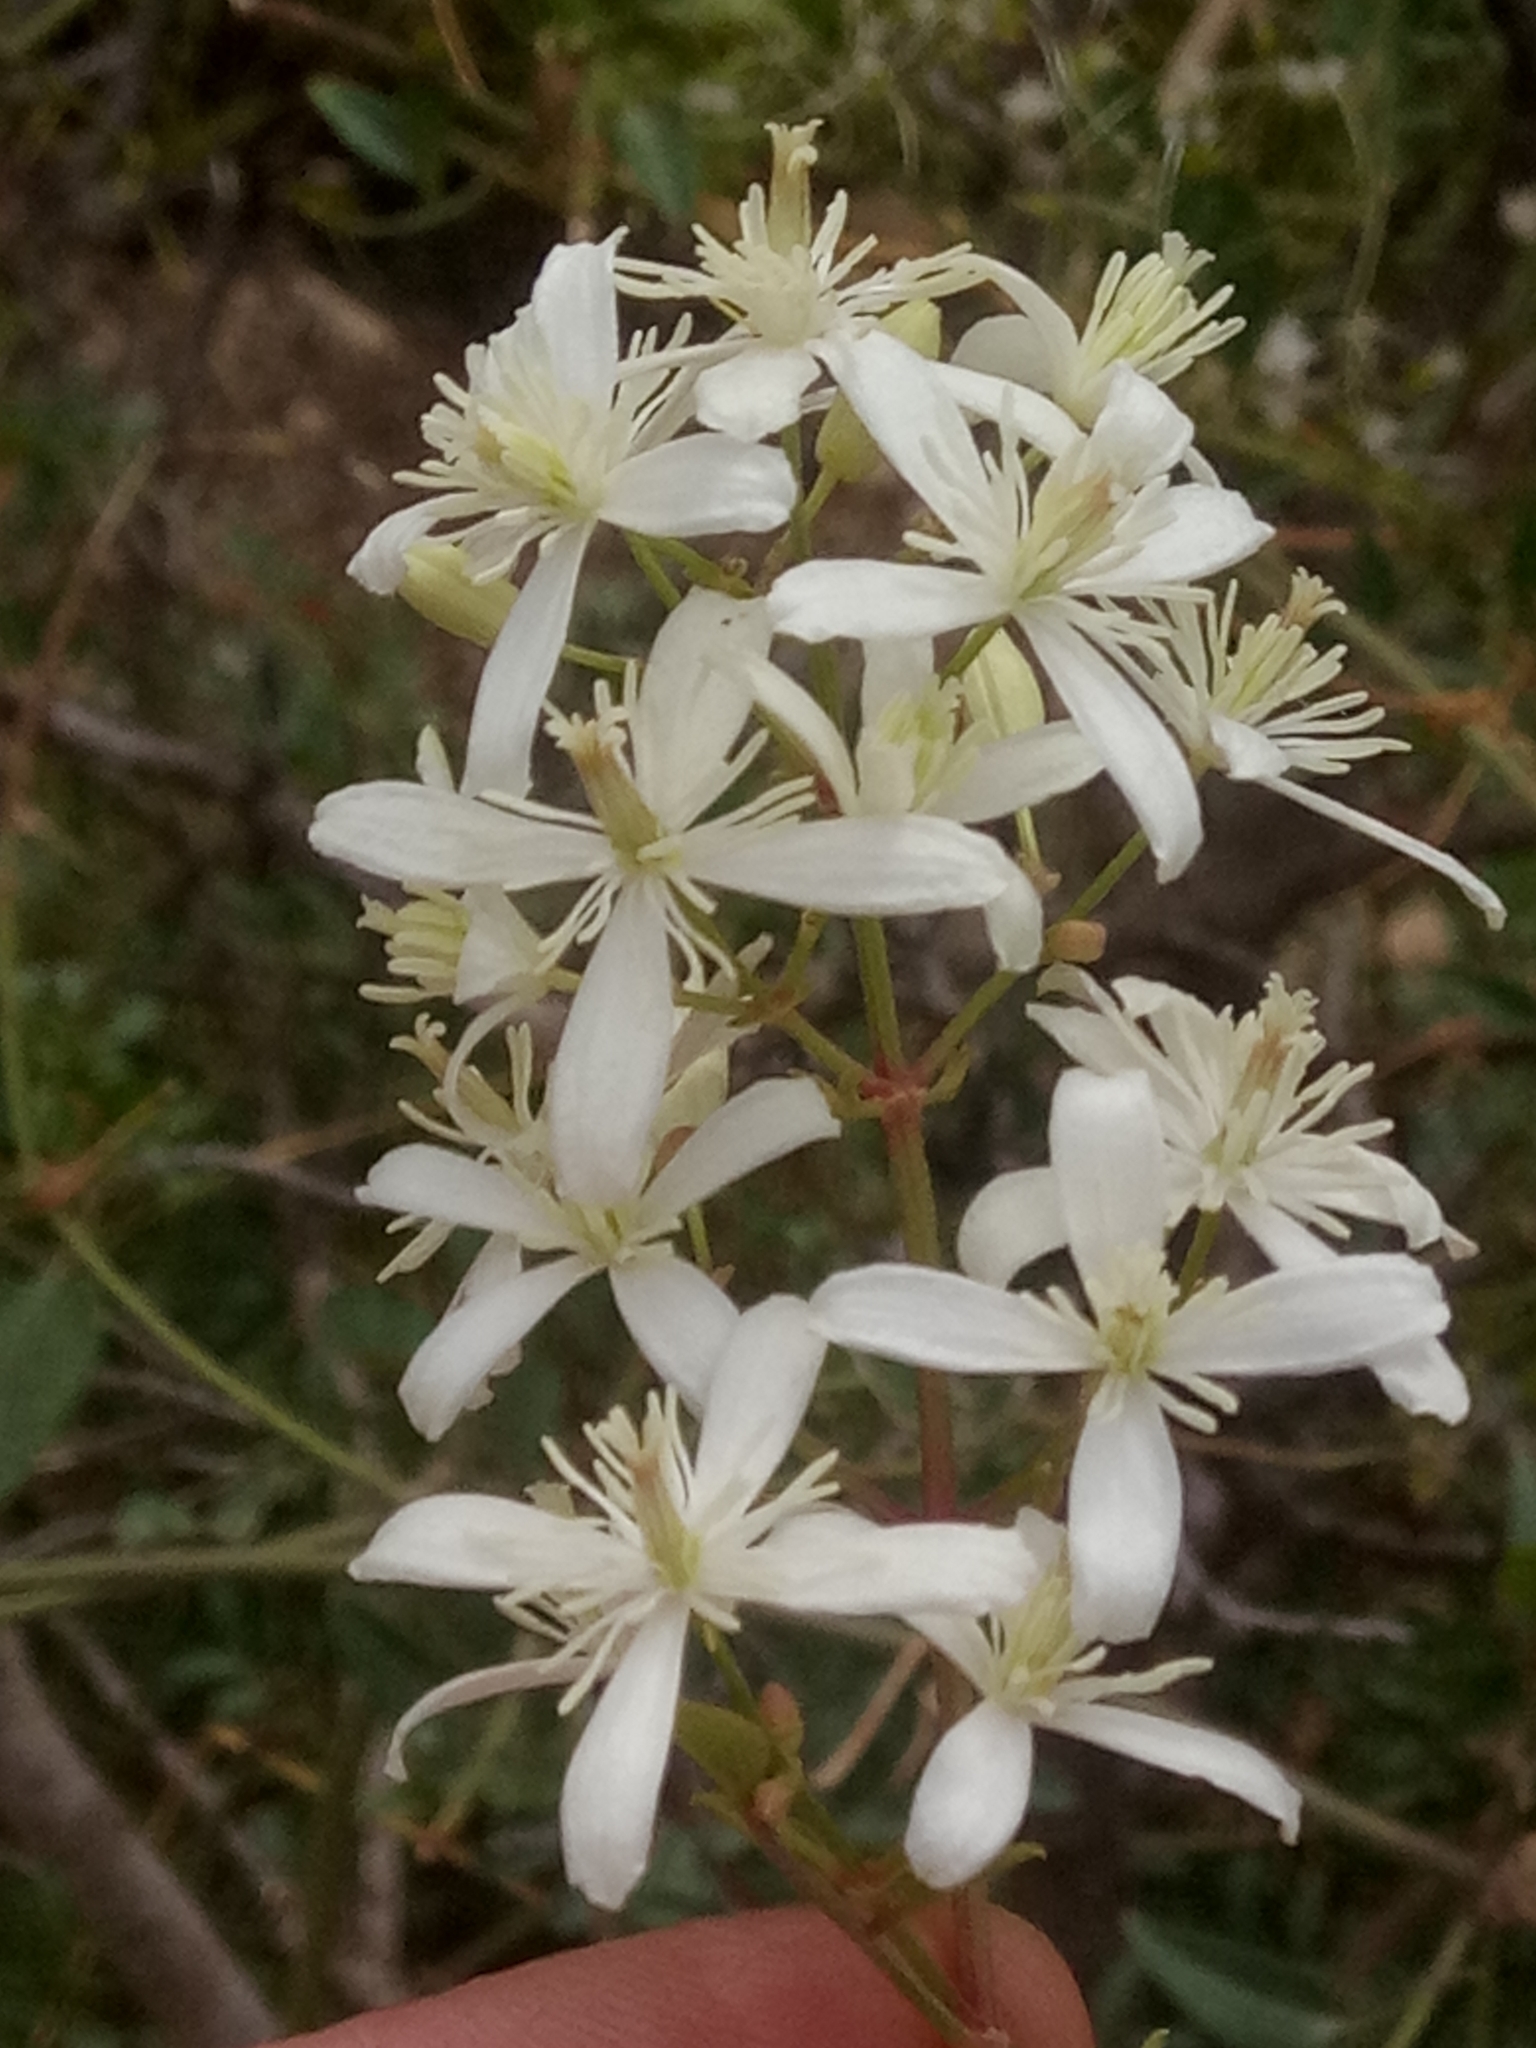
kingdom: Plantae
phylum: Tracheophyta
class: Magnoliopsida
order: Ranunculales
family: Ranunculaceae
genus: Clematis
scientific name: Clematis flammula
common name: Virgin's-bower
